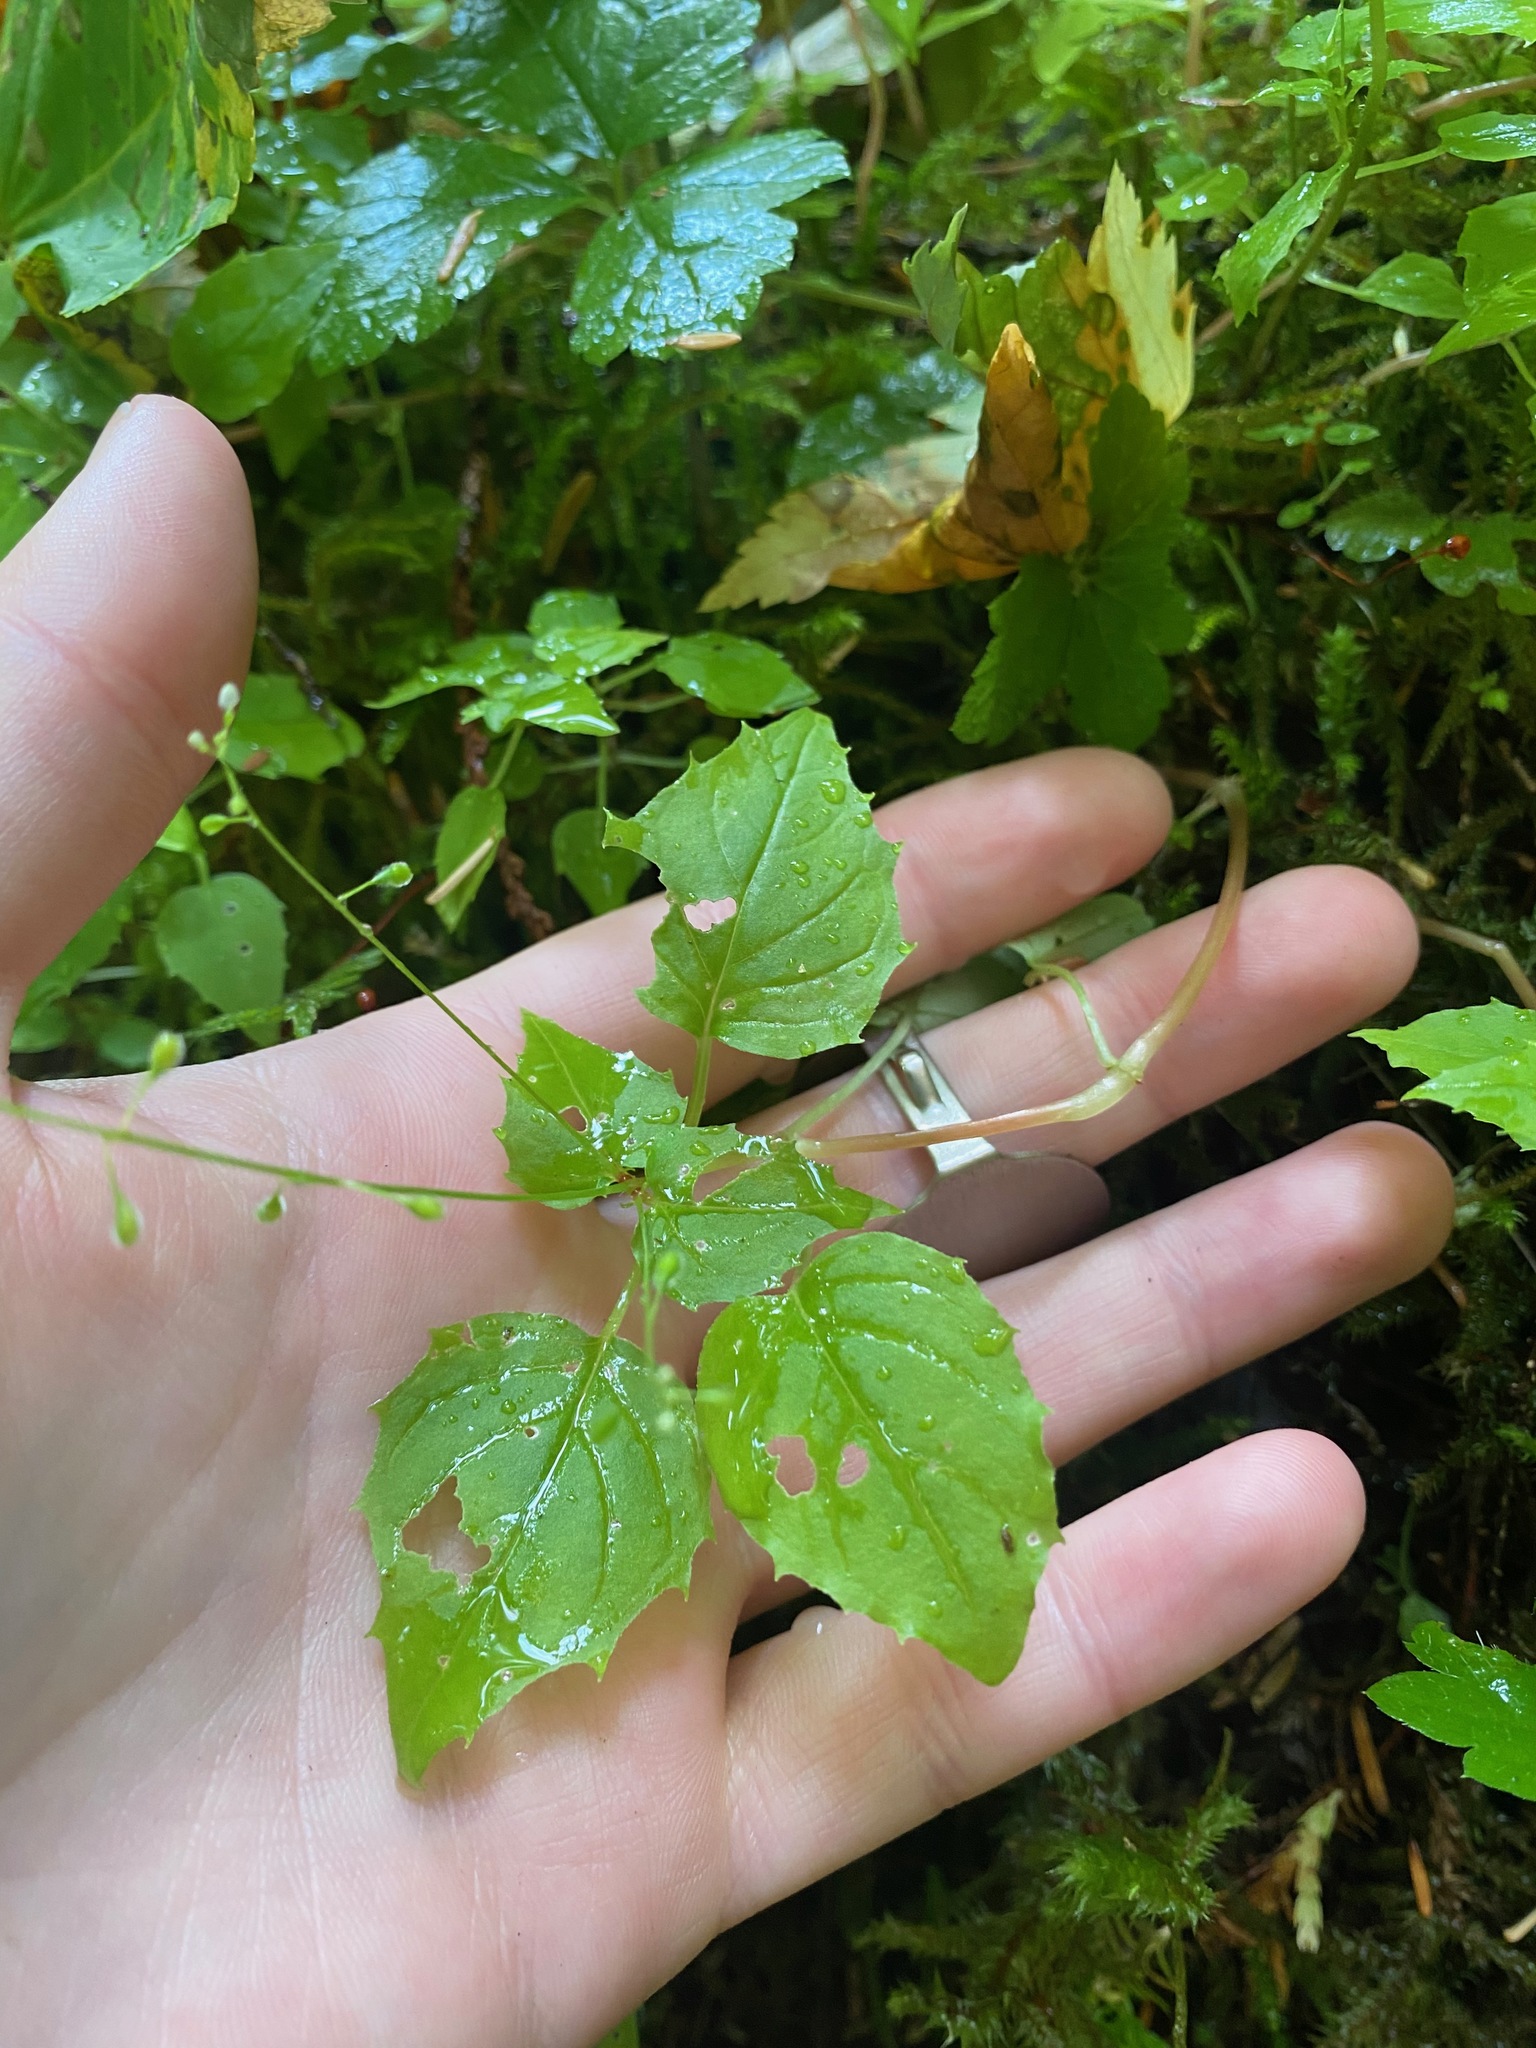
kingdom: Plantae
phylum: Tracheophyta
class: Magnoliopsida
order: Myrtales
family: Onagraceae
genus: Circaea
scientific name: Circaea alpina
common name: Alpine enchanter's-nightshade
